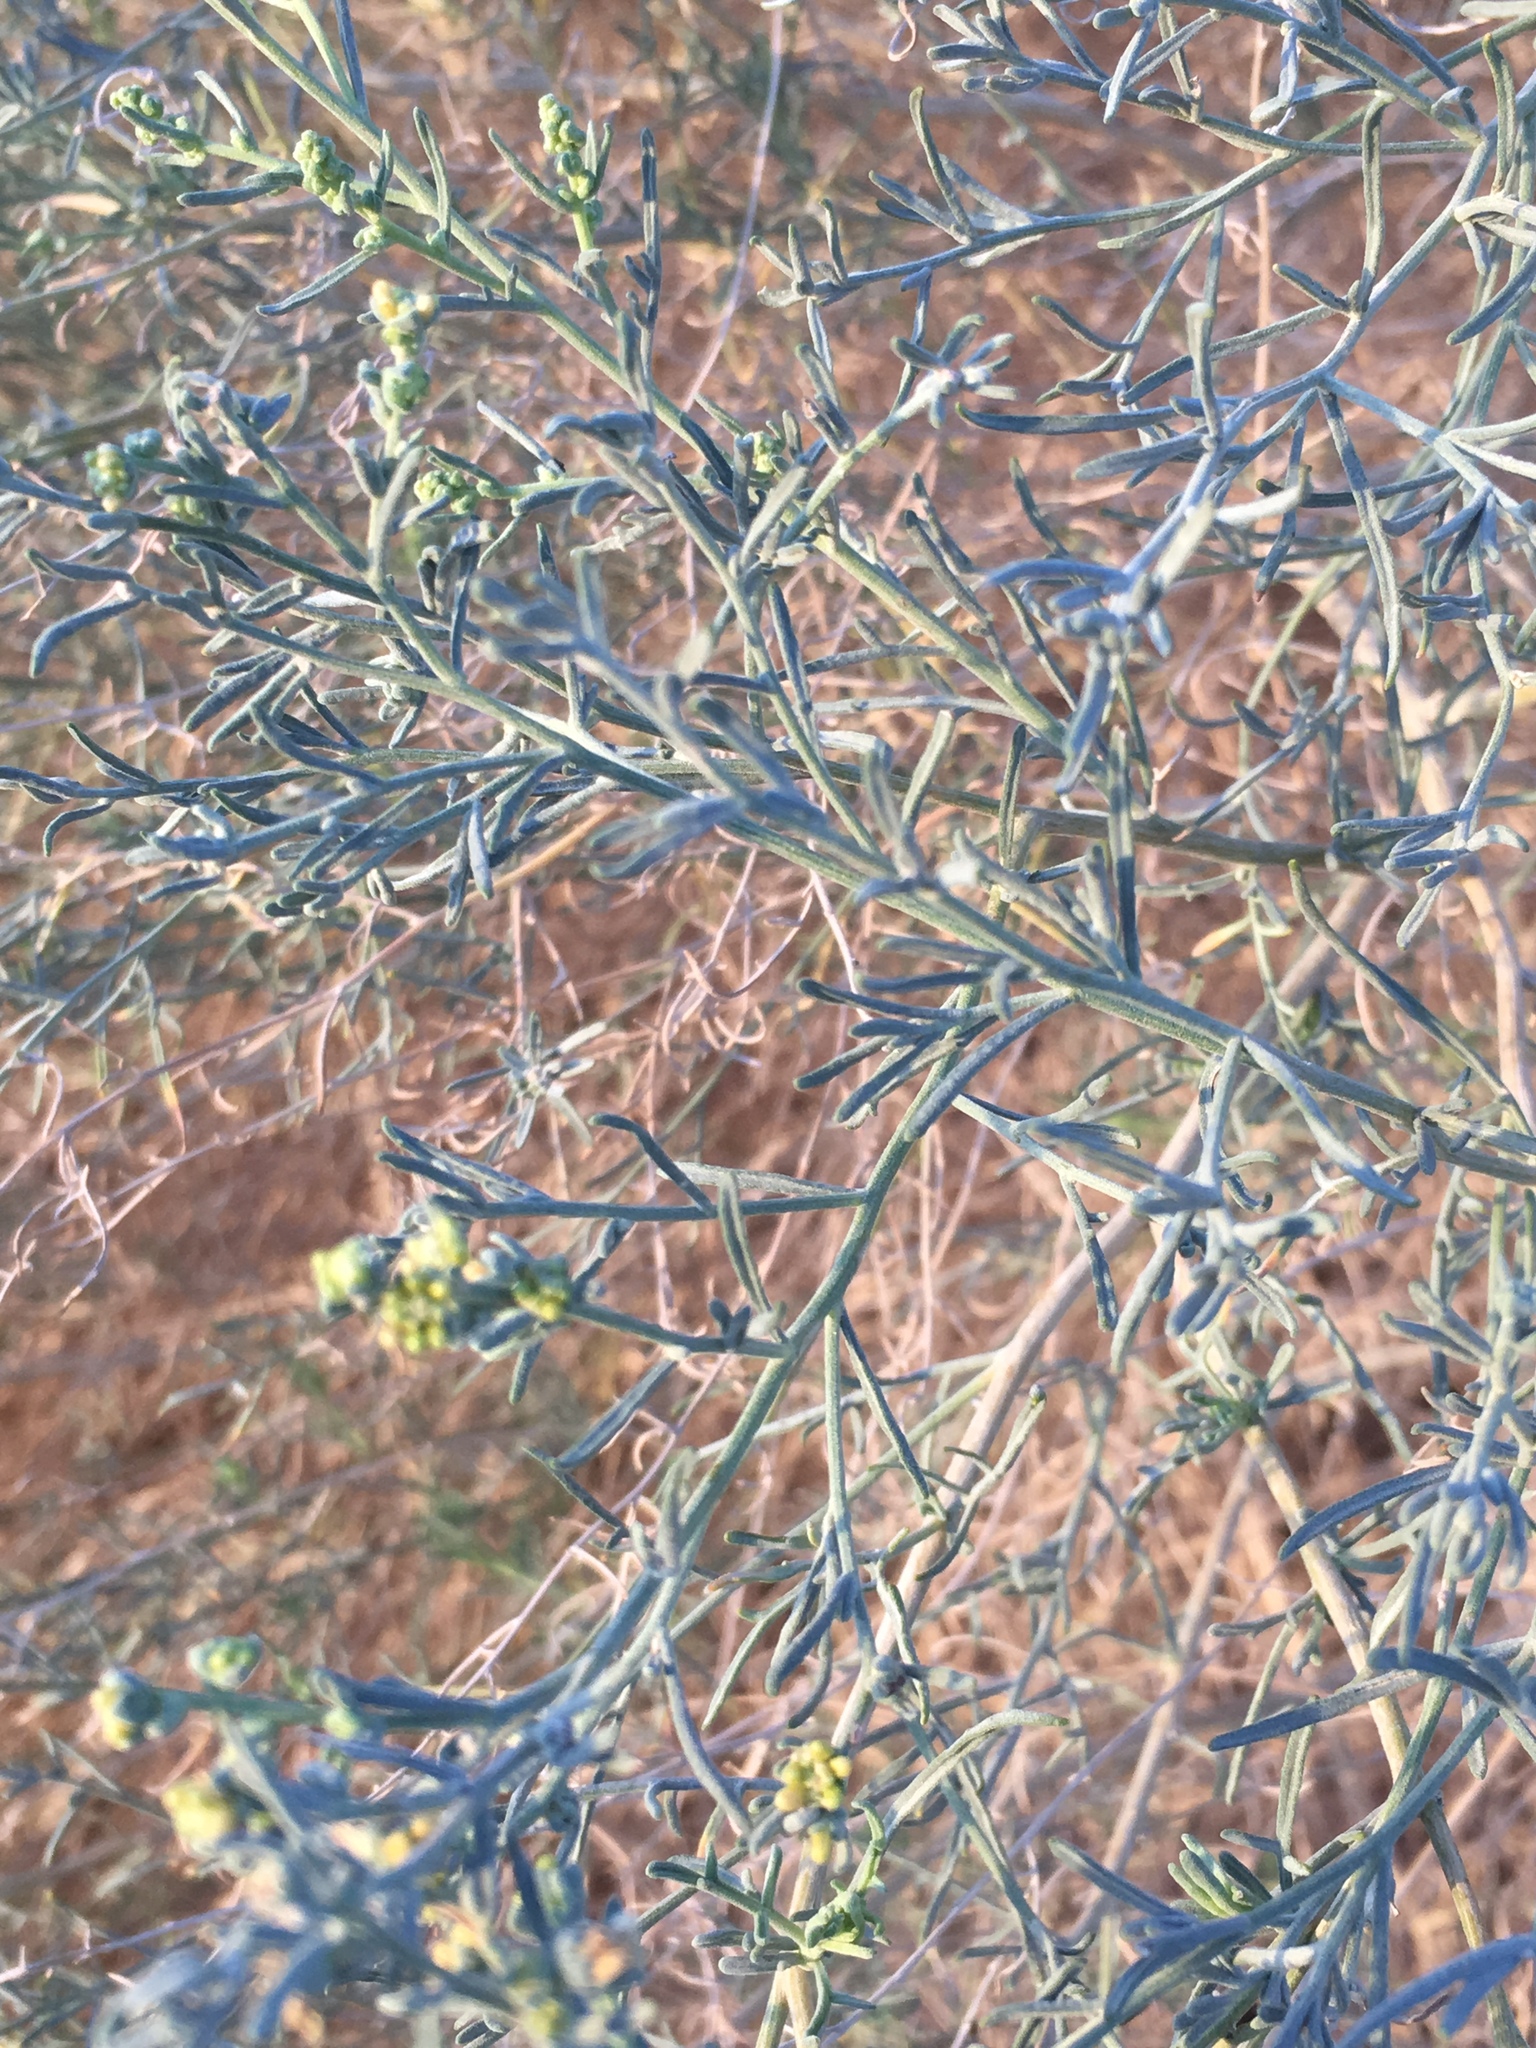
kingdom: Plantae
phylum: Tracheophyta
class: Magnoliopsida
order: Asterales
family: Asteraceae
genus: Ambrosia
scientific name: Ambrosia salsola
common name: Burrobrush
